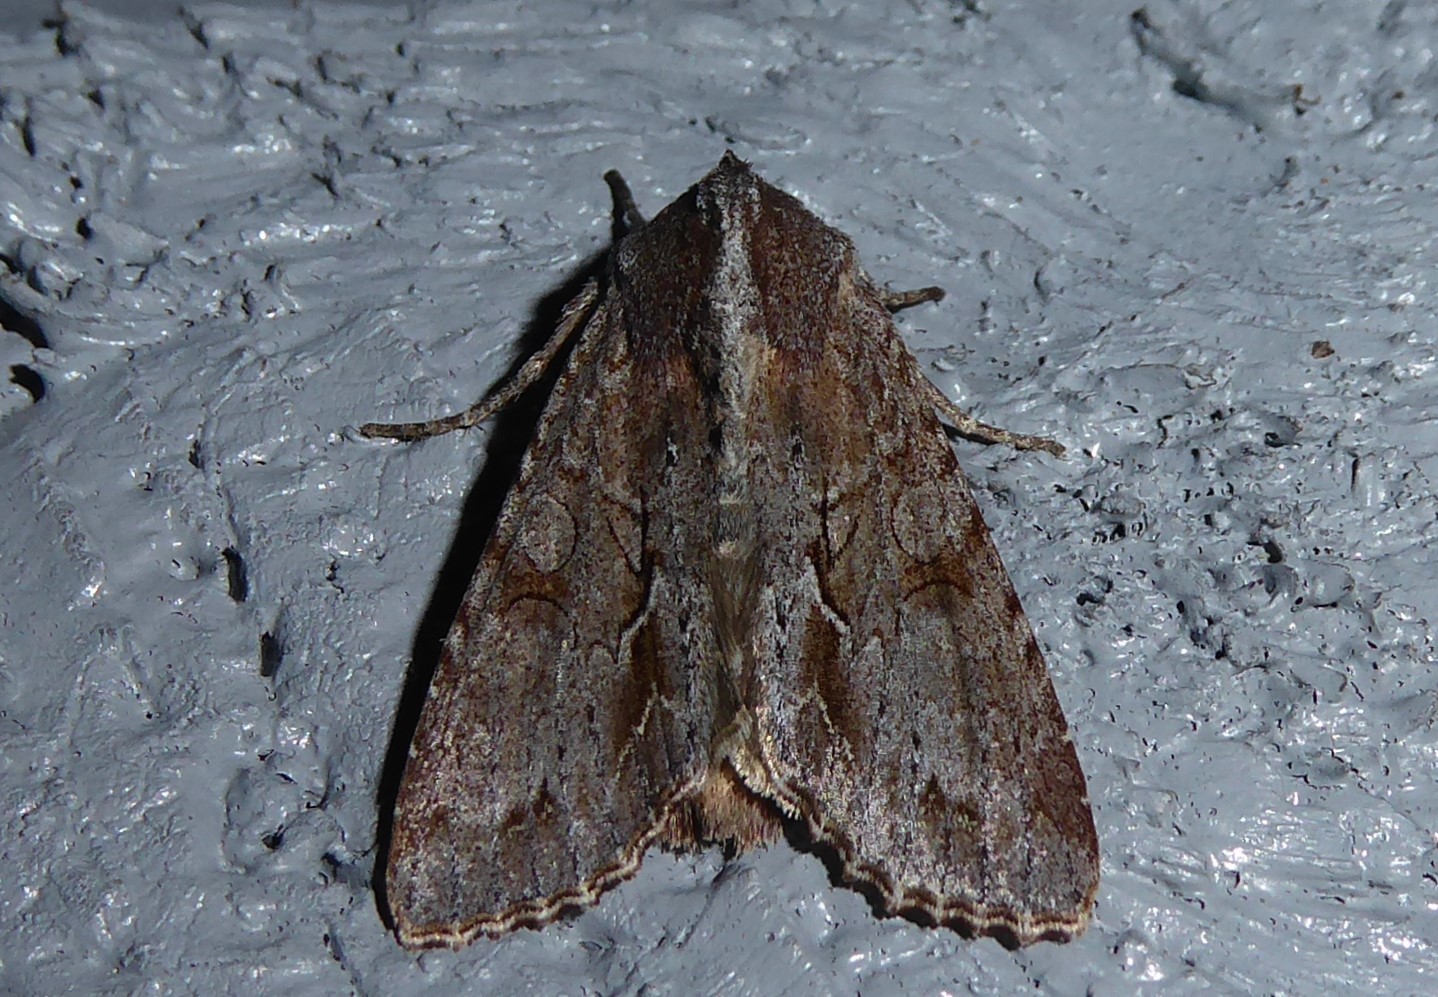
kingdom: Animalia
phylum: Arthropoda
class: Insecta
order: Lepidoptera
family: Noctuidae
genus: Ichneutica
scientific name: Ichneutica
